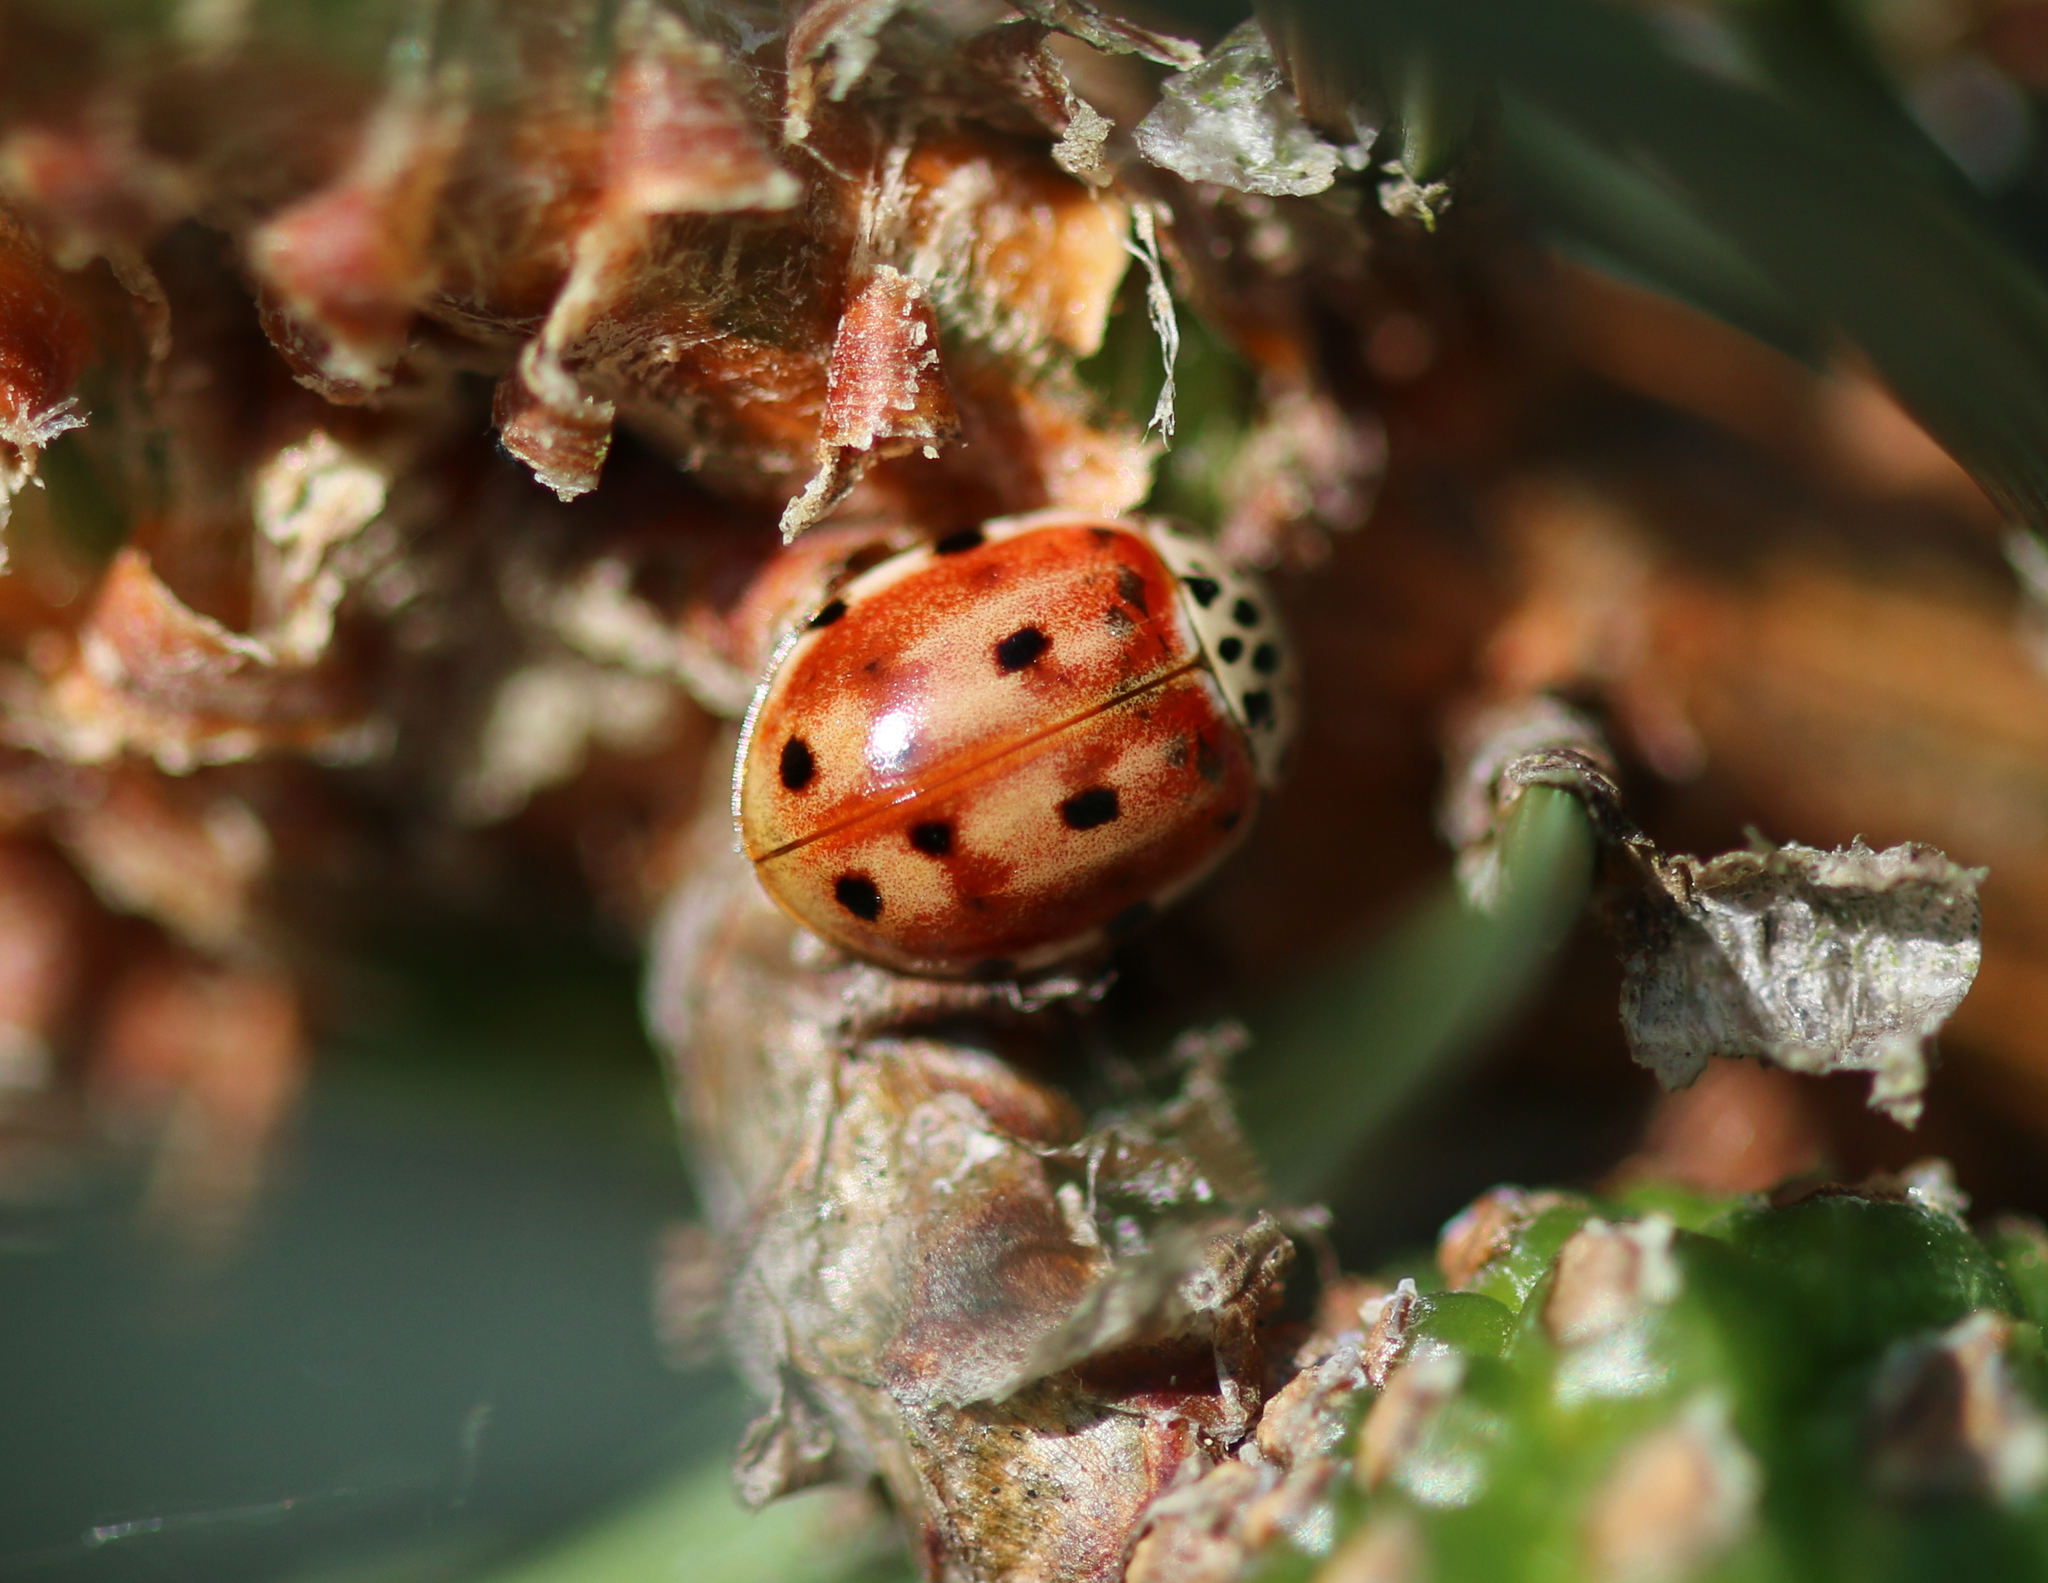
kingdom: Animalia
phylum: Arthropoda
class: Insecta
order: Coleoptera
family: Coccinellidae
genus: Harmonia
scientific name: Harmonia quadripunctata
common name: Cream-streaked ladybird
